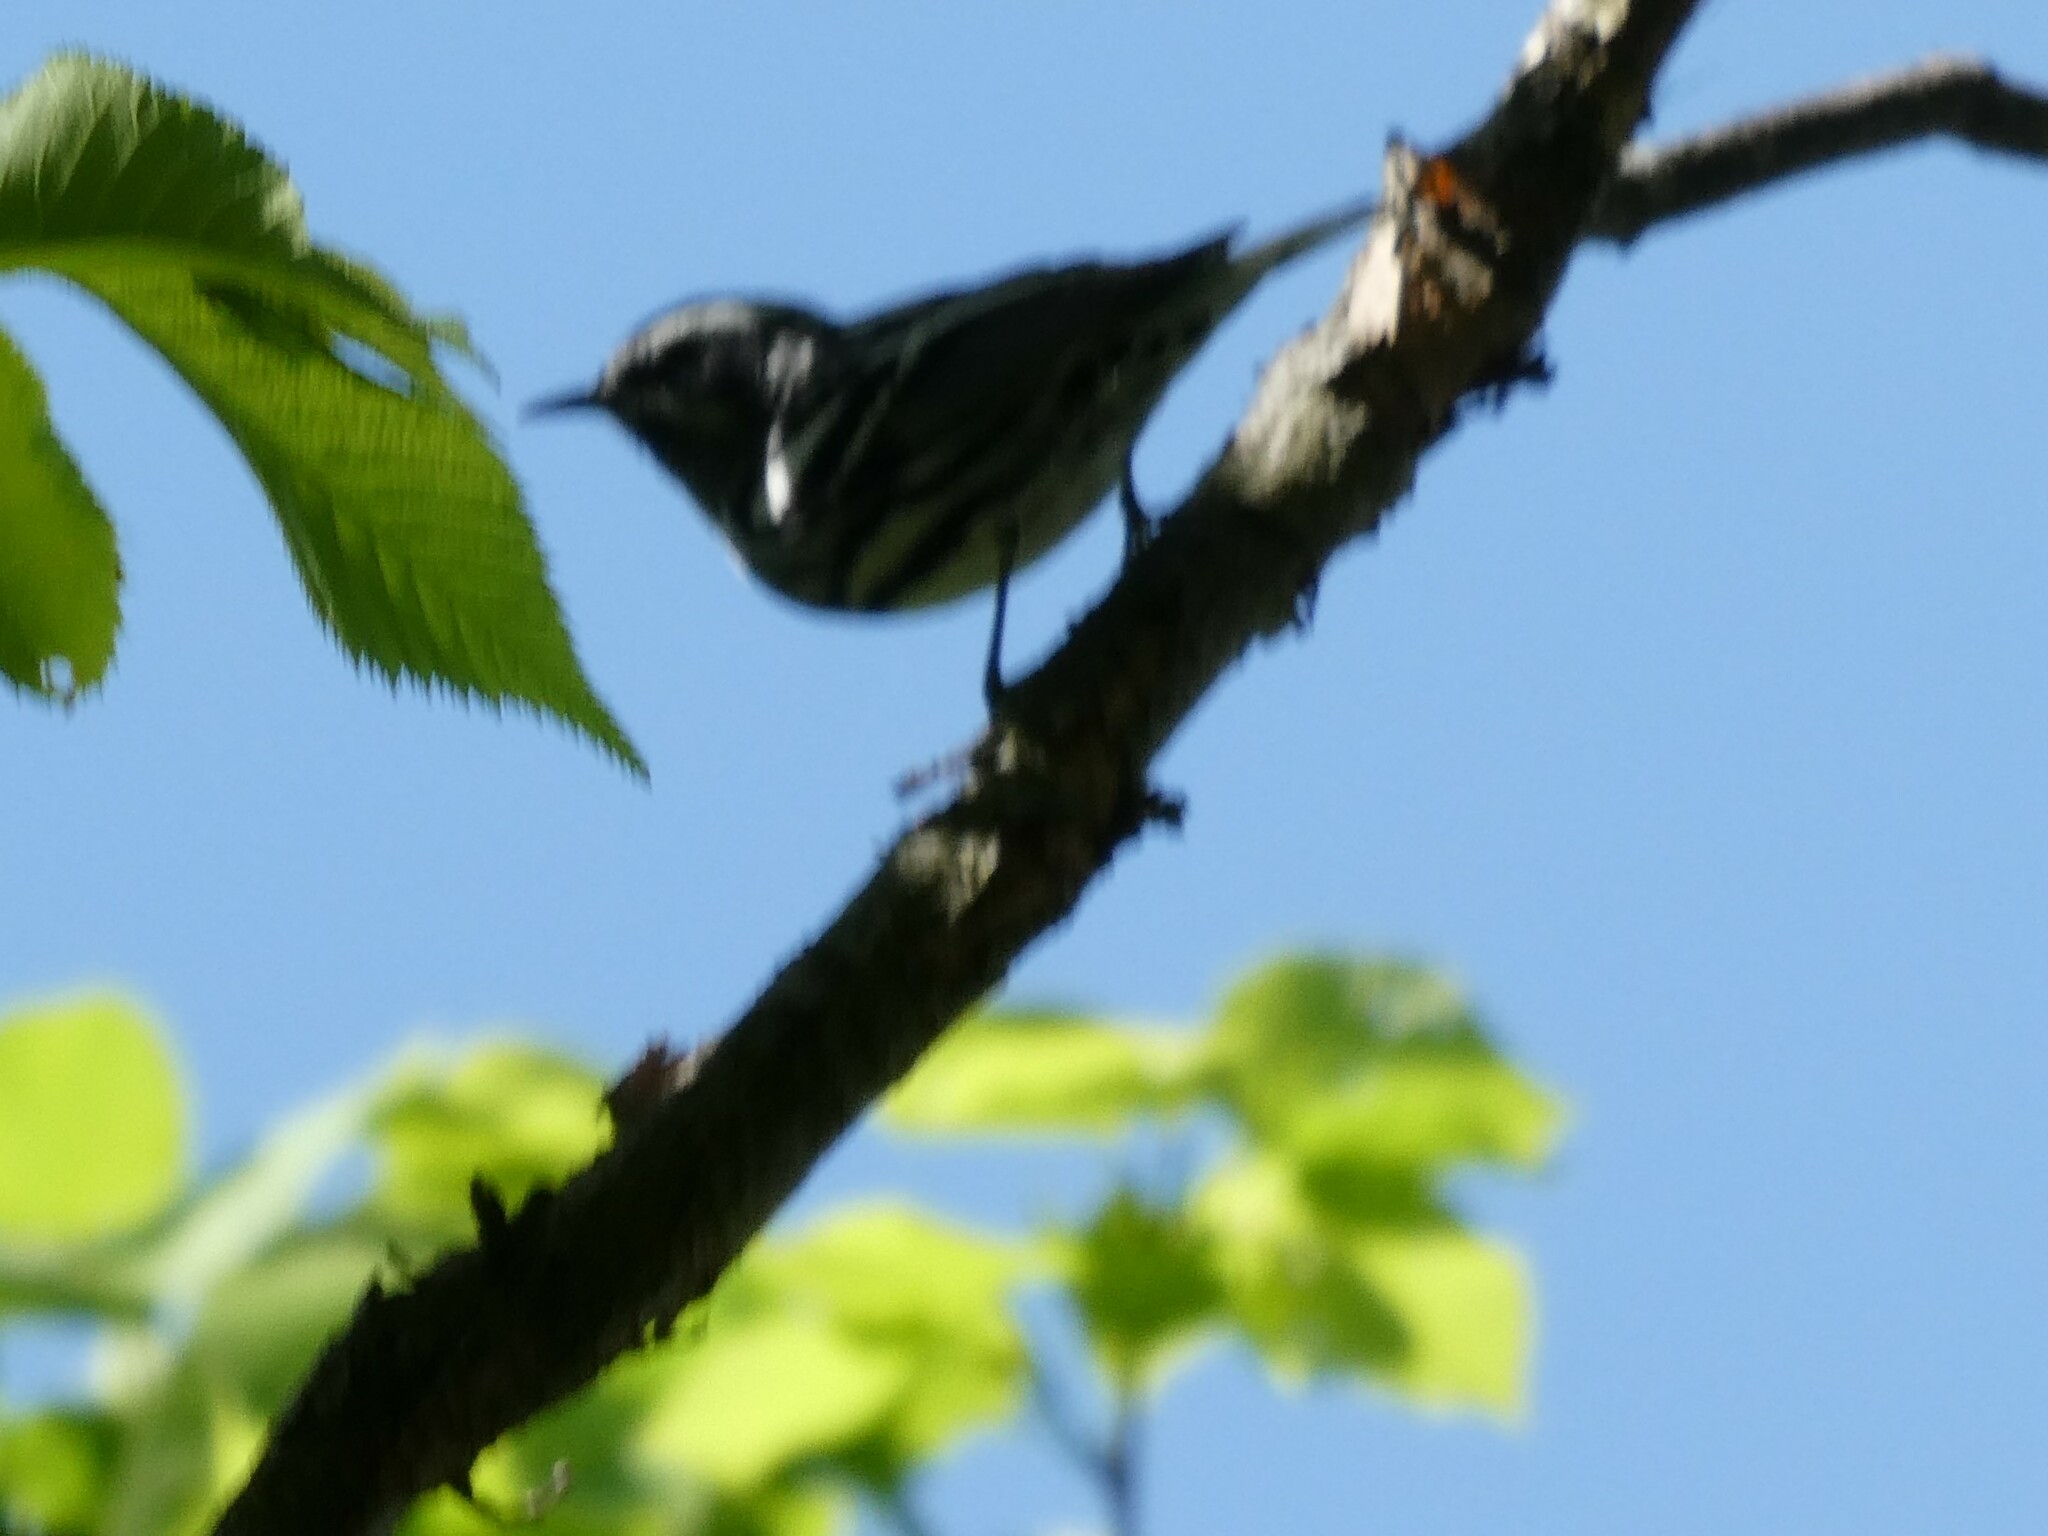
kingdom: Animalia
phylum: Chordata
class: Aves
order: Passeriformes
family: Parulidae
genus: Mniotilta
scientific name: Mniotilta varia
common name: Black-and-white warbler
